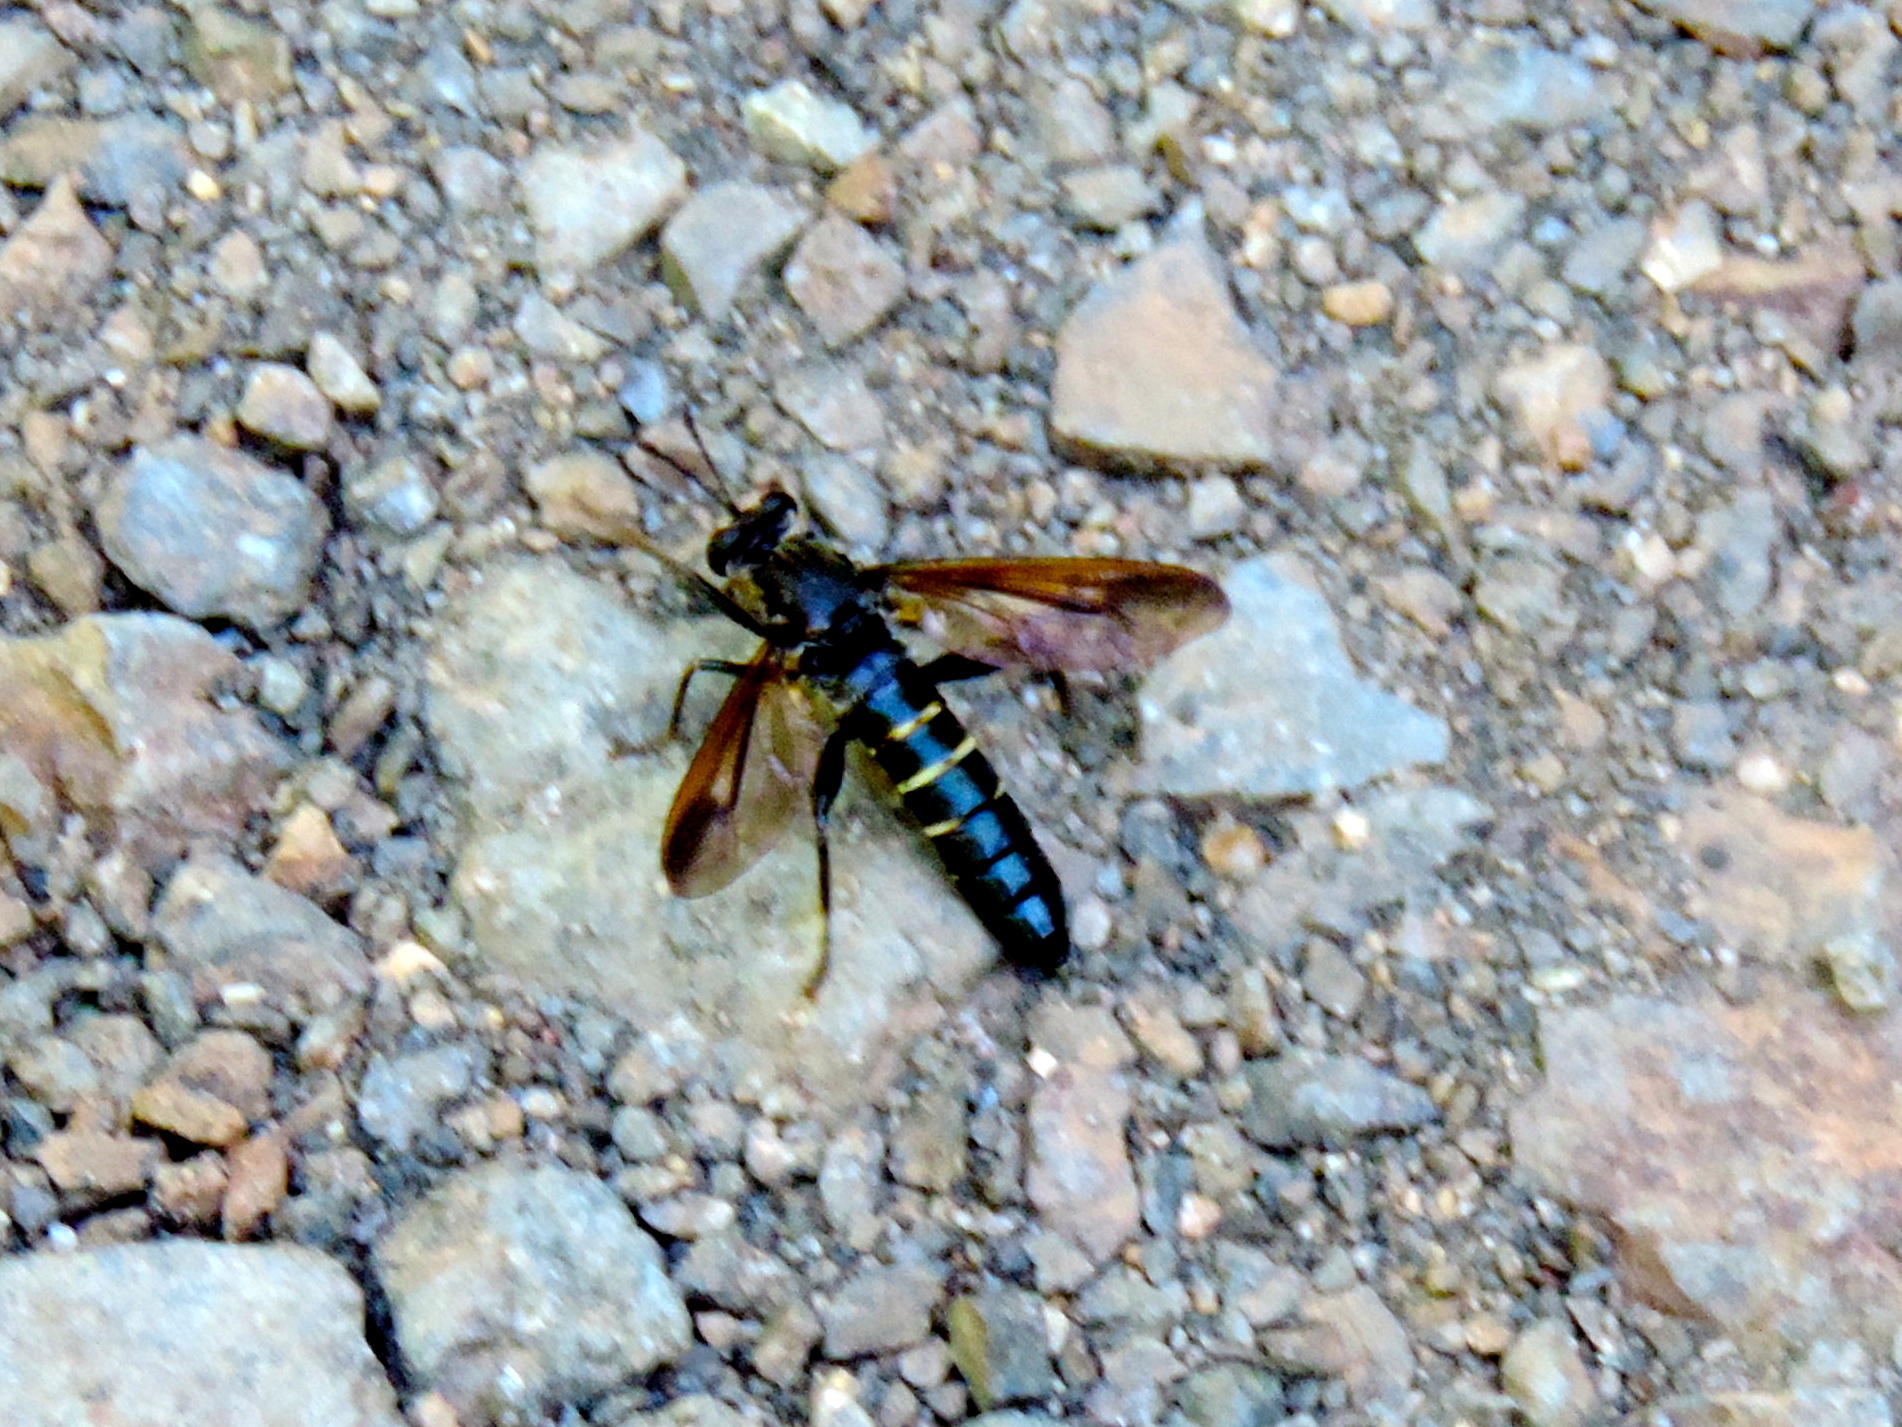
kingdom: Animalia
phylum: Arthropoda
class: Insecta
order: Diptera
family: Mydidae
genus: Mydas
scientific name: Mydas
